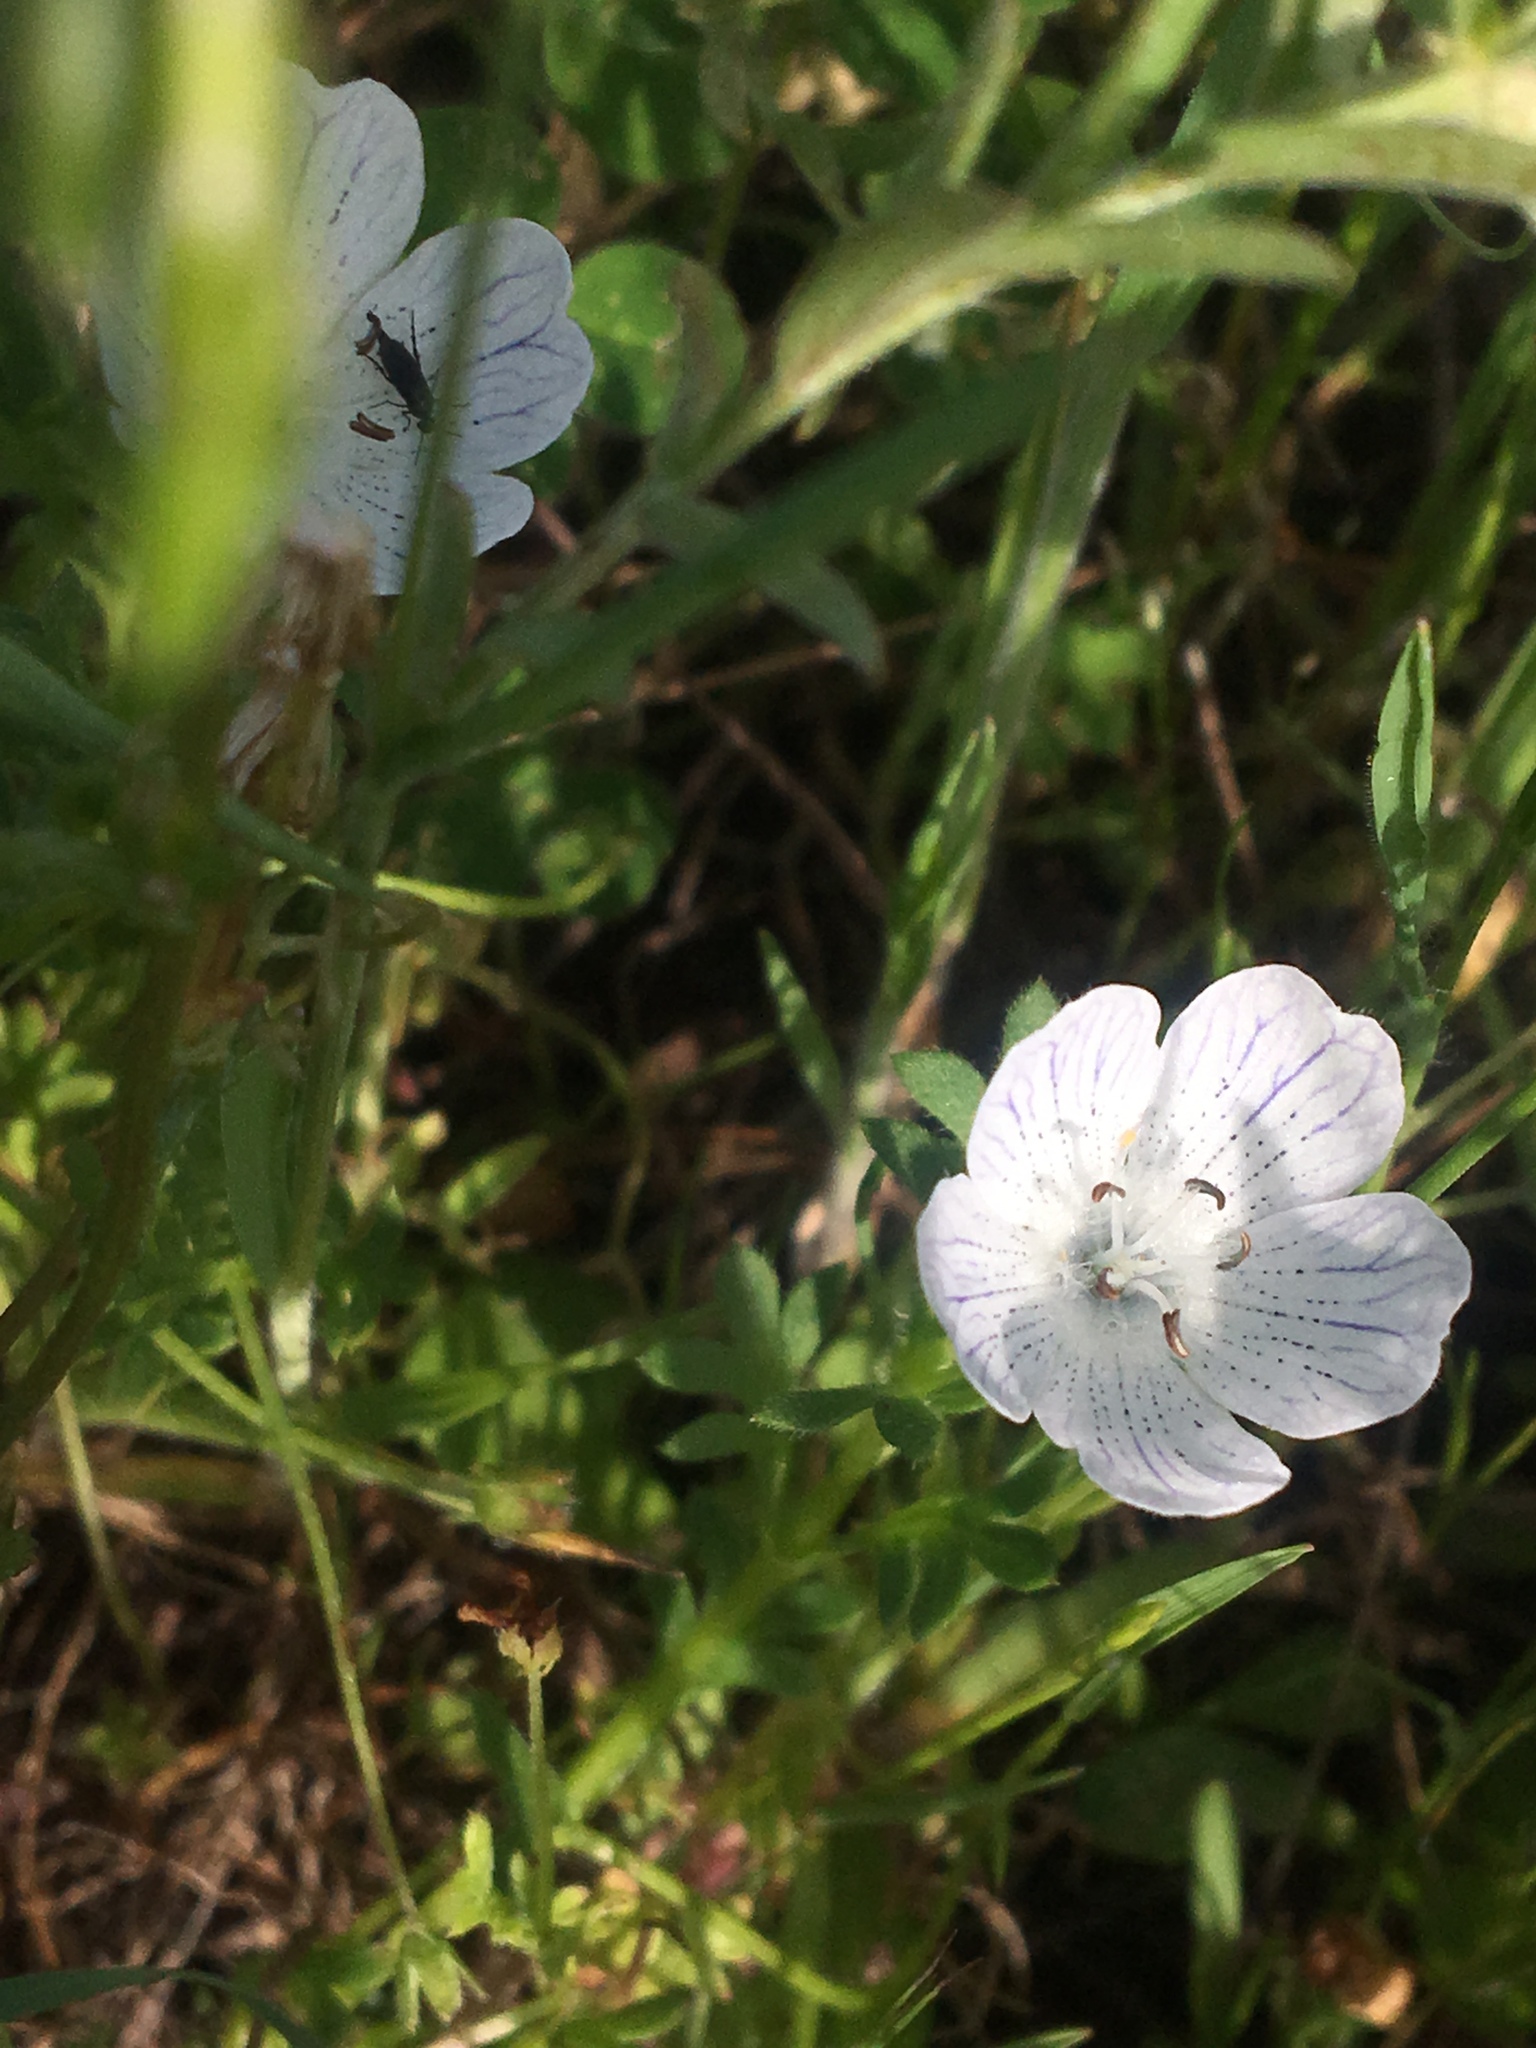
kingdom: Plantae
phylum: Tracheophyta
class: Magnoliopsida
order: Boraginales
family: Hydrophyllaceae
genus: Nemophila
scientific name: Nemophila menziesii
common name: Baby's-blue-eyes
